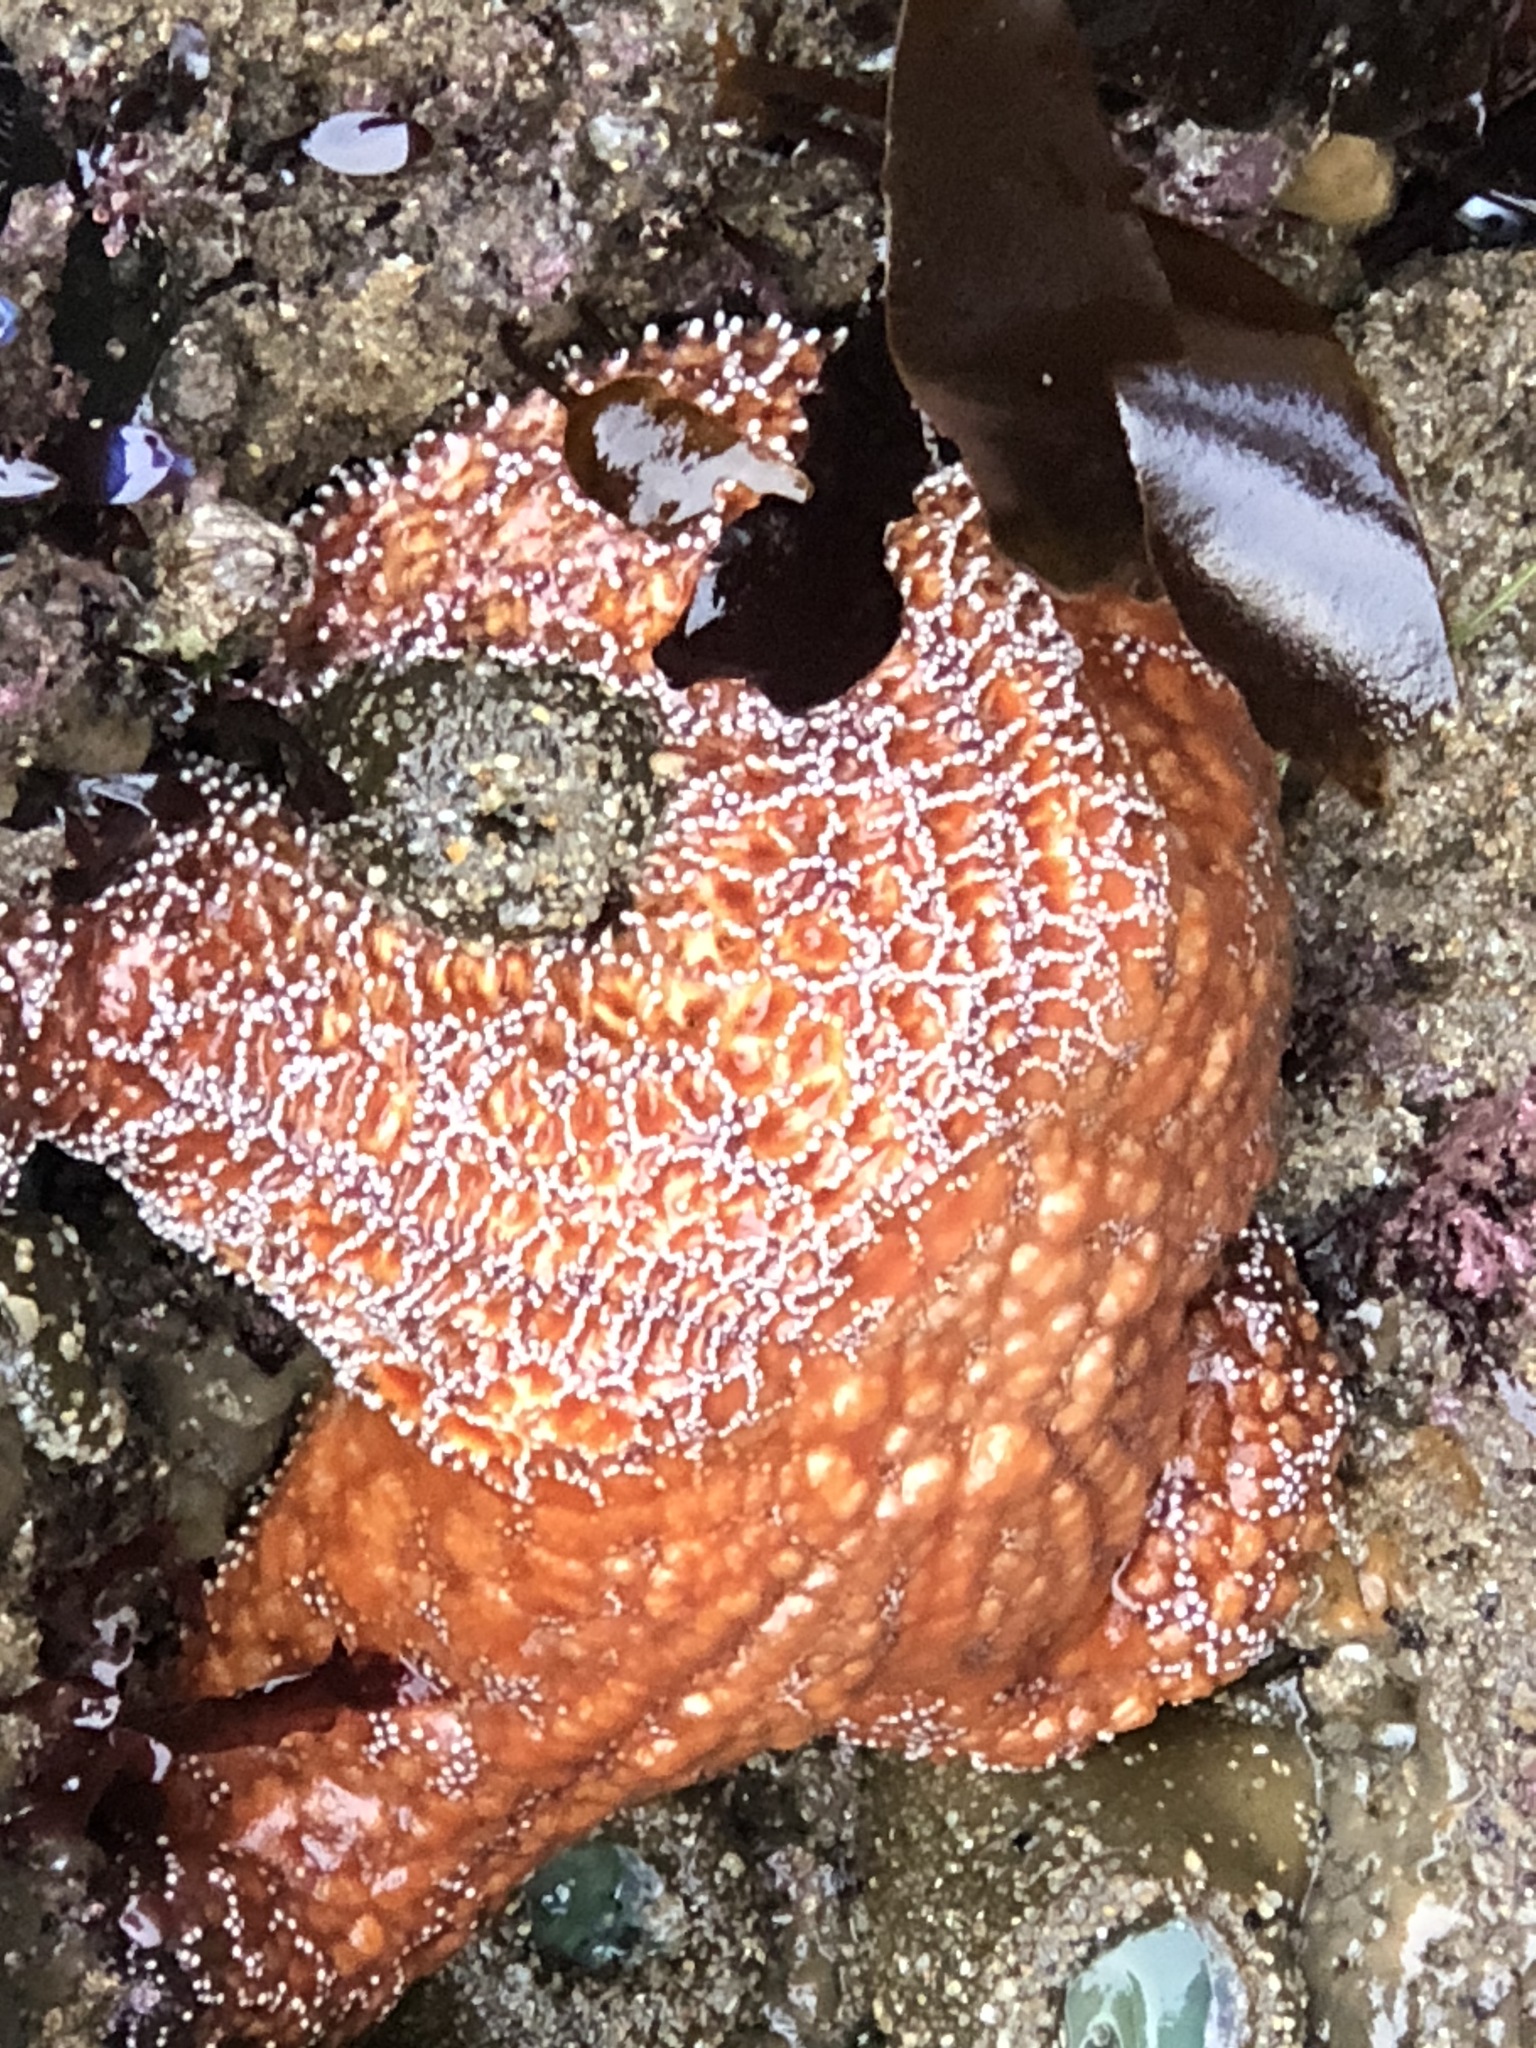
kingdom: Animalia
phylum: Echinodermata
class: Asteroidea
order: Forcipulatida
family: Asteriidae
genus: Pisaster
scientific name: Pisaster ochraceus
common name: Ochre stars
